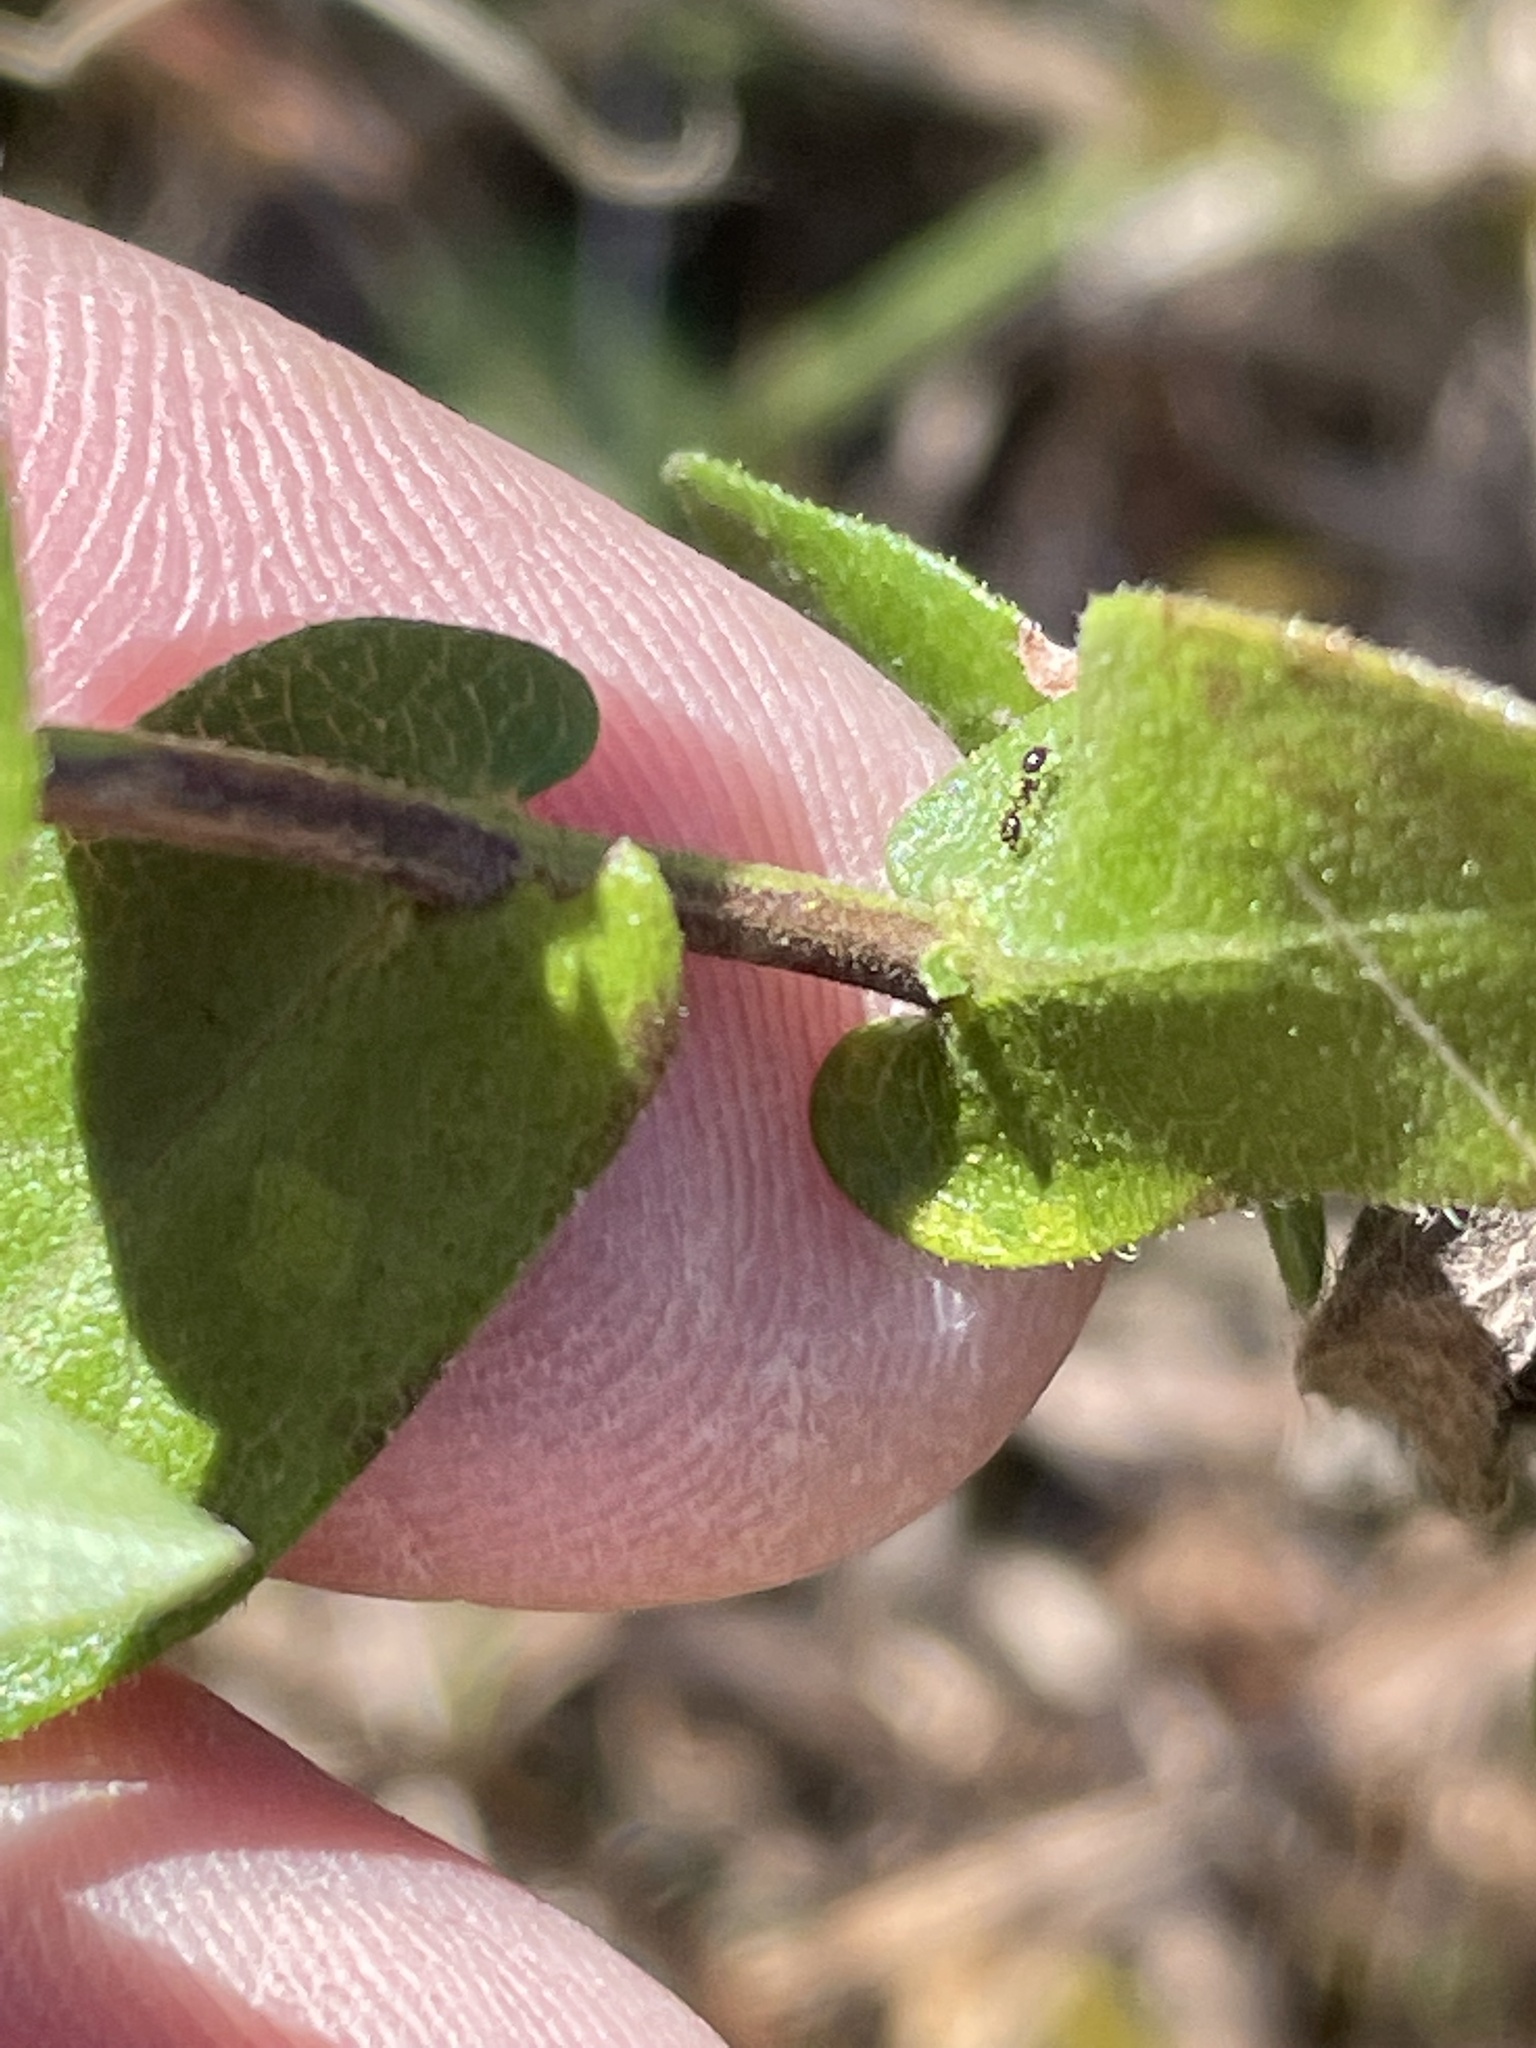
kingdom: Plantae
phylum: Tracheophyta
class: Magnoliopsida
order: Asterales
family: Asteraceae
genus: Symphyotrichum
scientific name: Symphyotrichum patens
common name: Late purple aster
